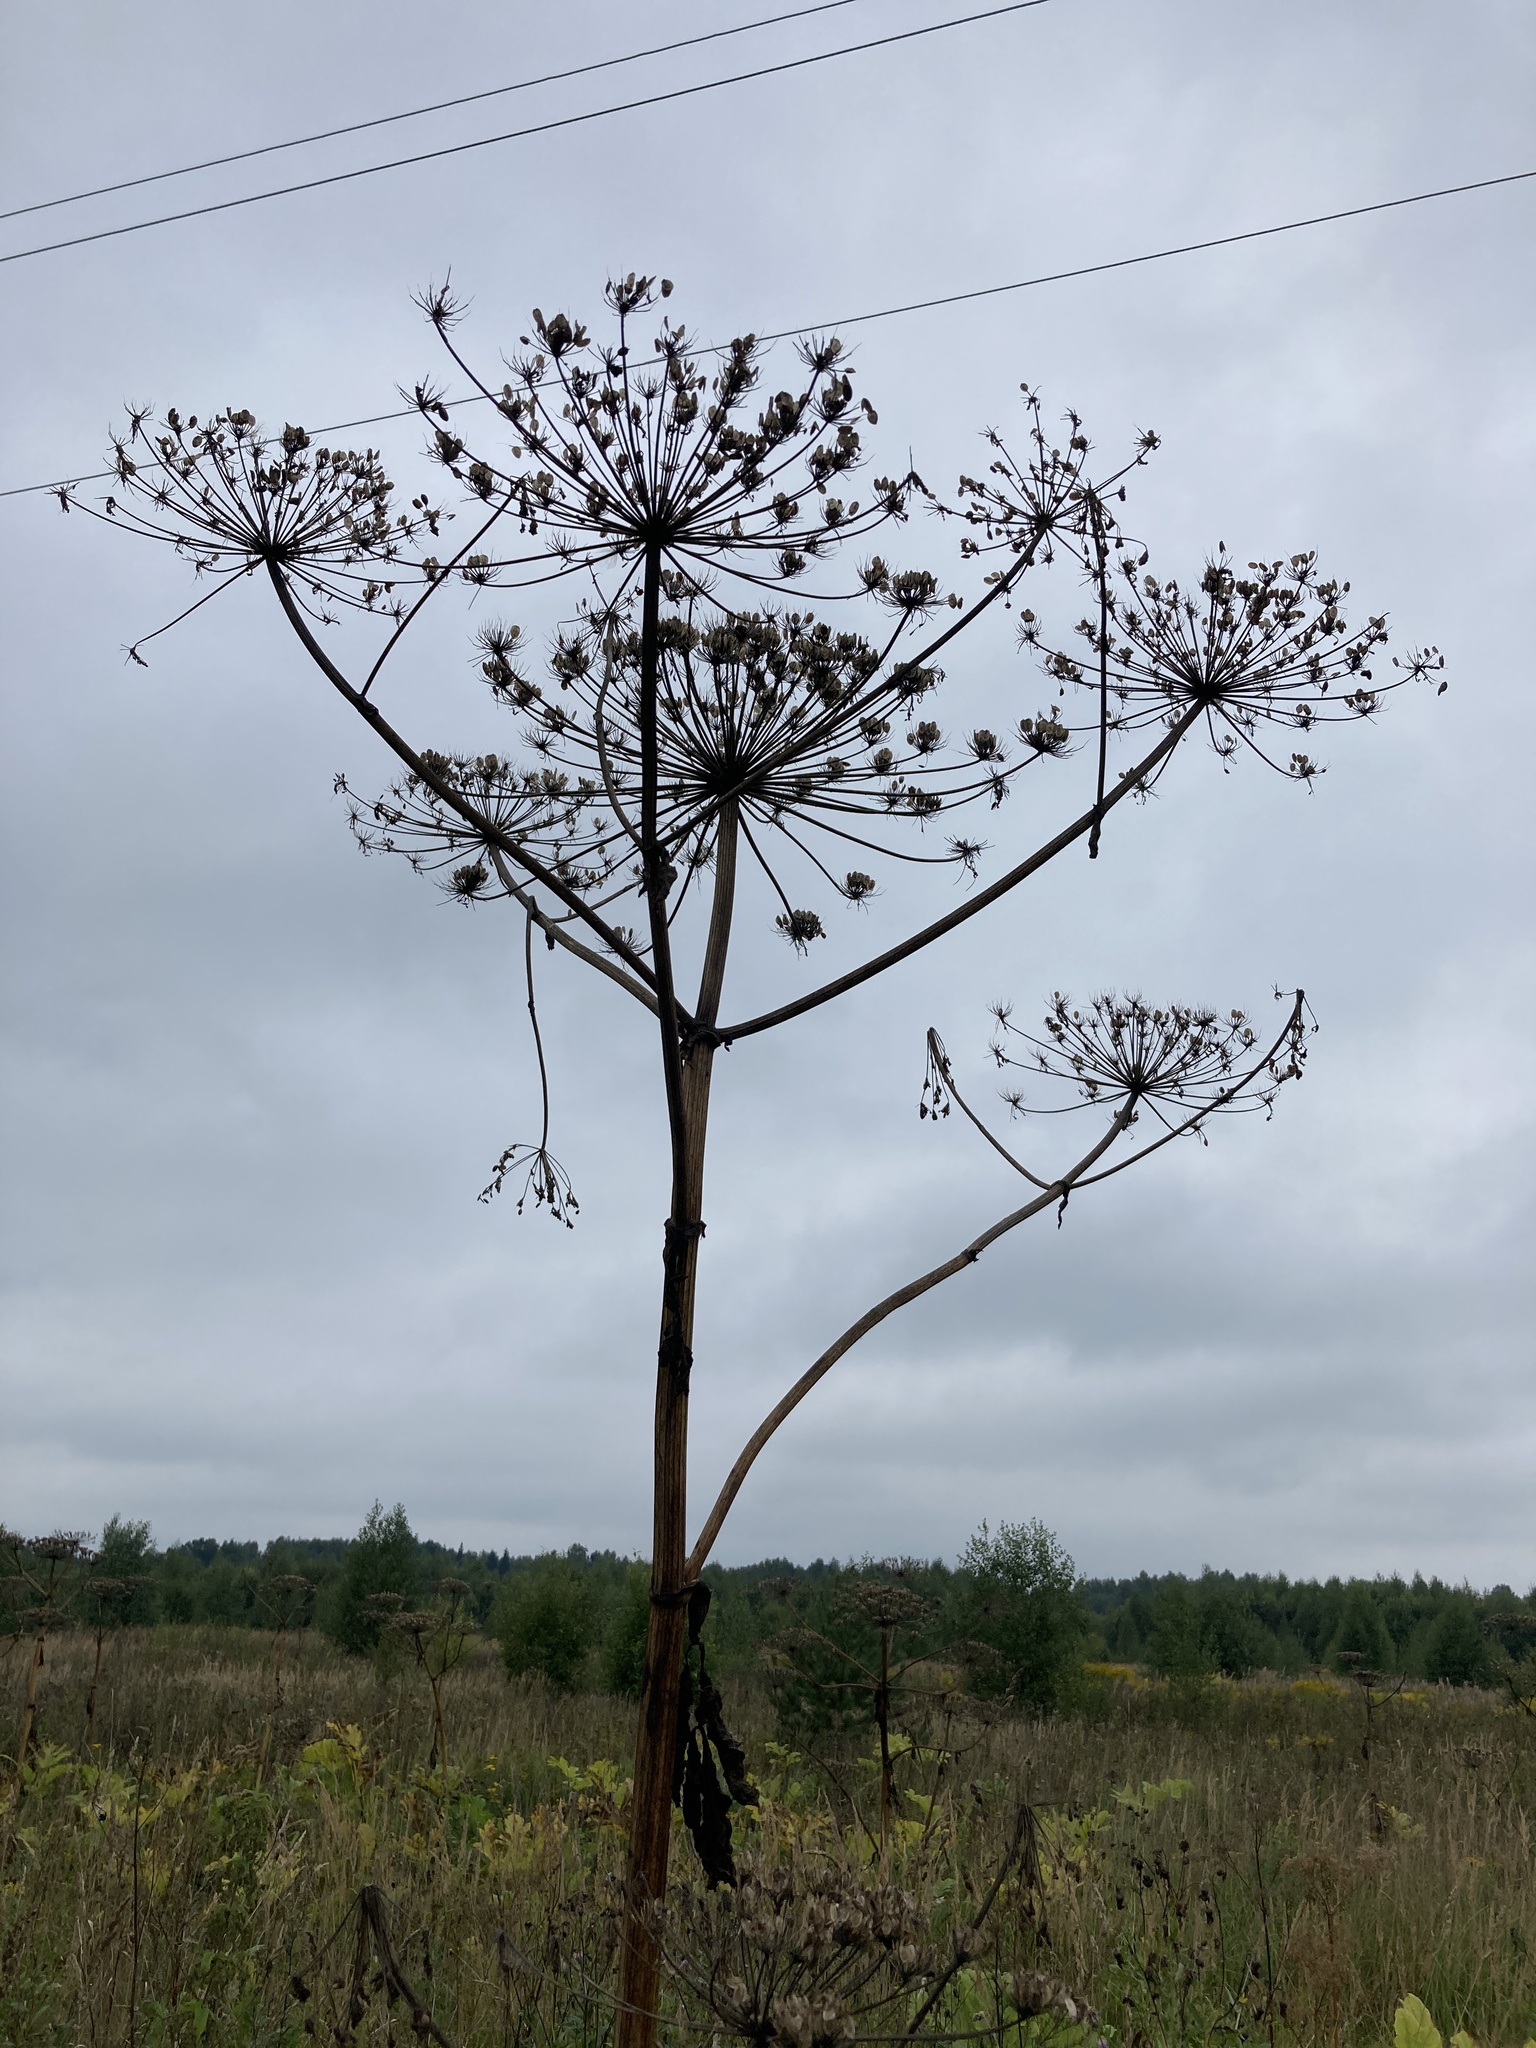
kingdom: Plantae
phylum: Tracheophyta
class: Magnoliopsida
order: Apiales
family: Apiaceae
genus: Heracleum
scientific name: Heracleum sosnowskyi
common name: Sosnowsky's hogweed
